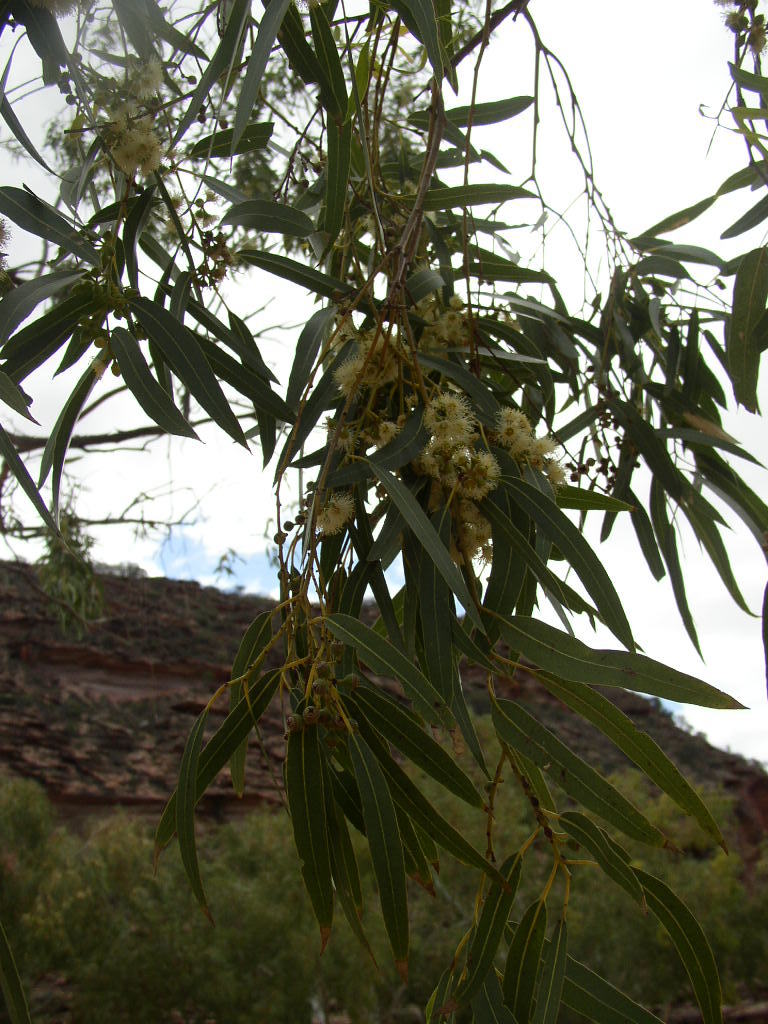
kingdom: Plantae
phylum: Tracheophyta
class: Magnoliopsida
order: Myrtales
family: Myrtaceae
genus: Eucalyptus
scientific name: Eucalyptus camaldulensis
